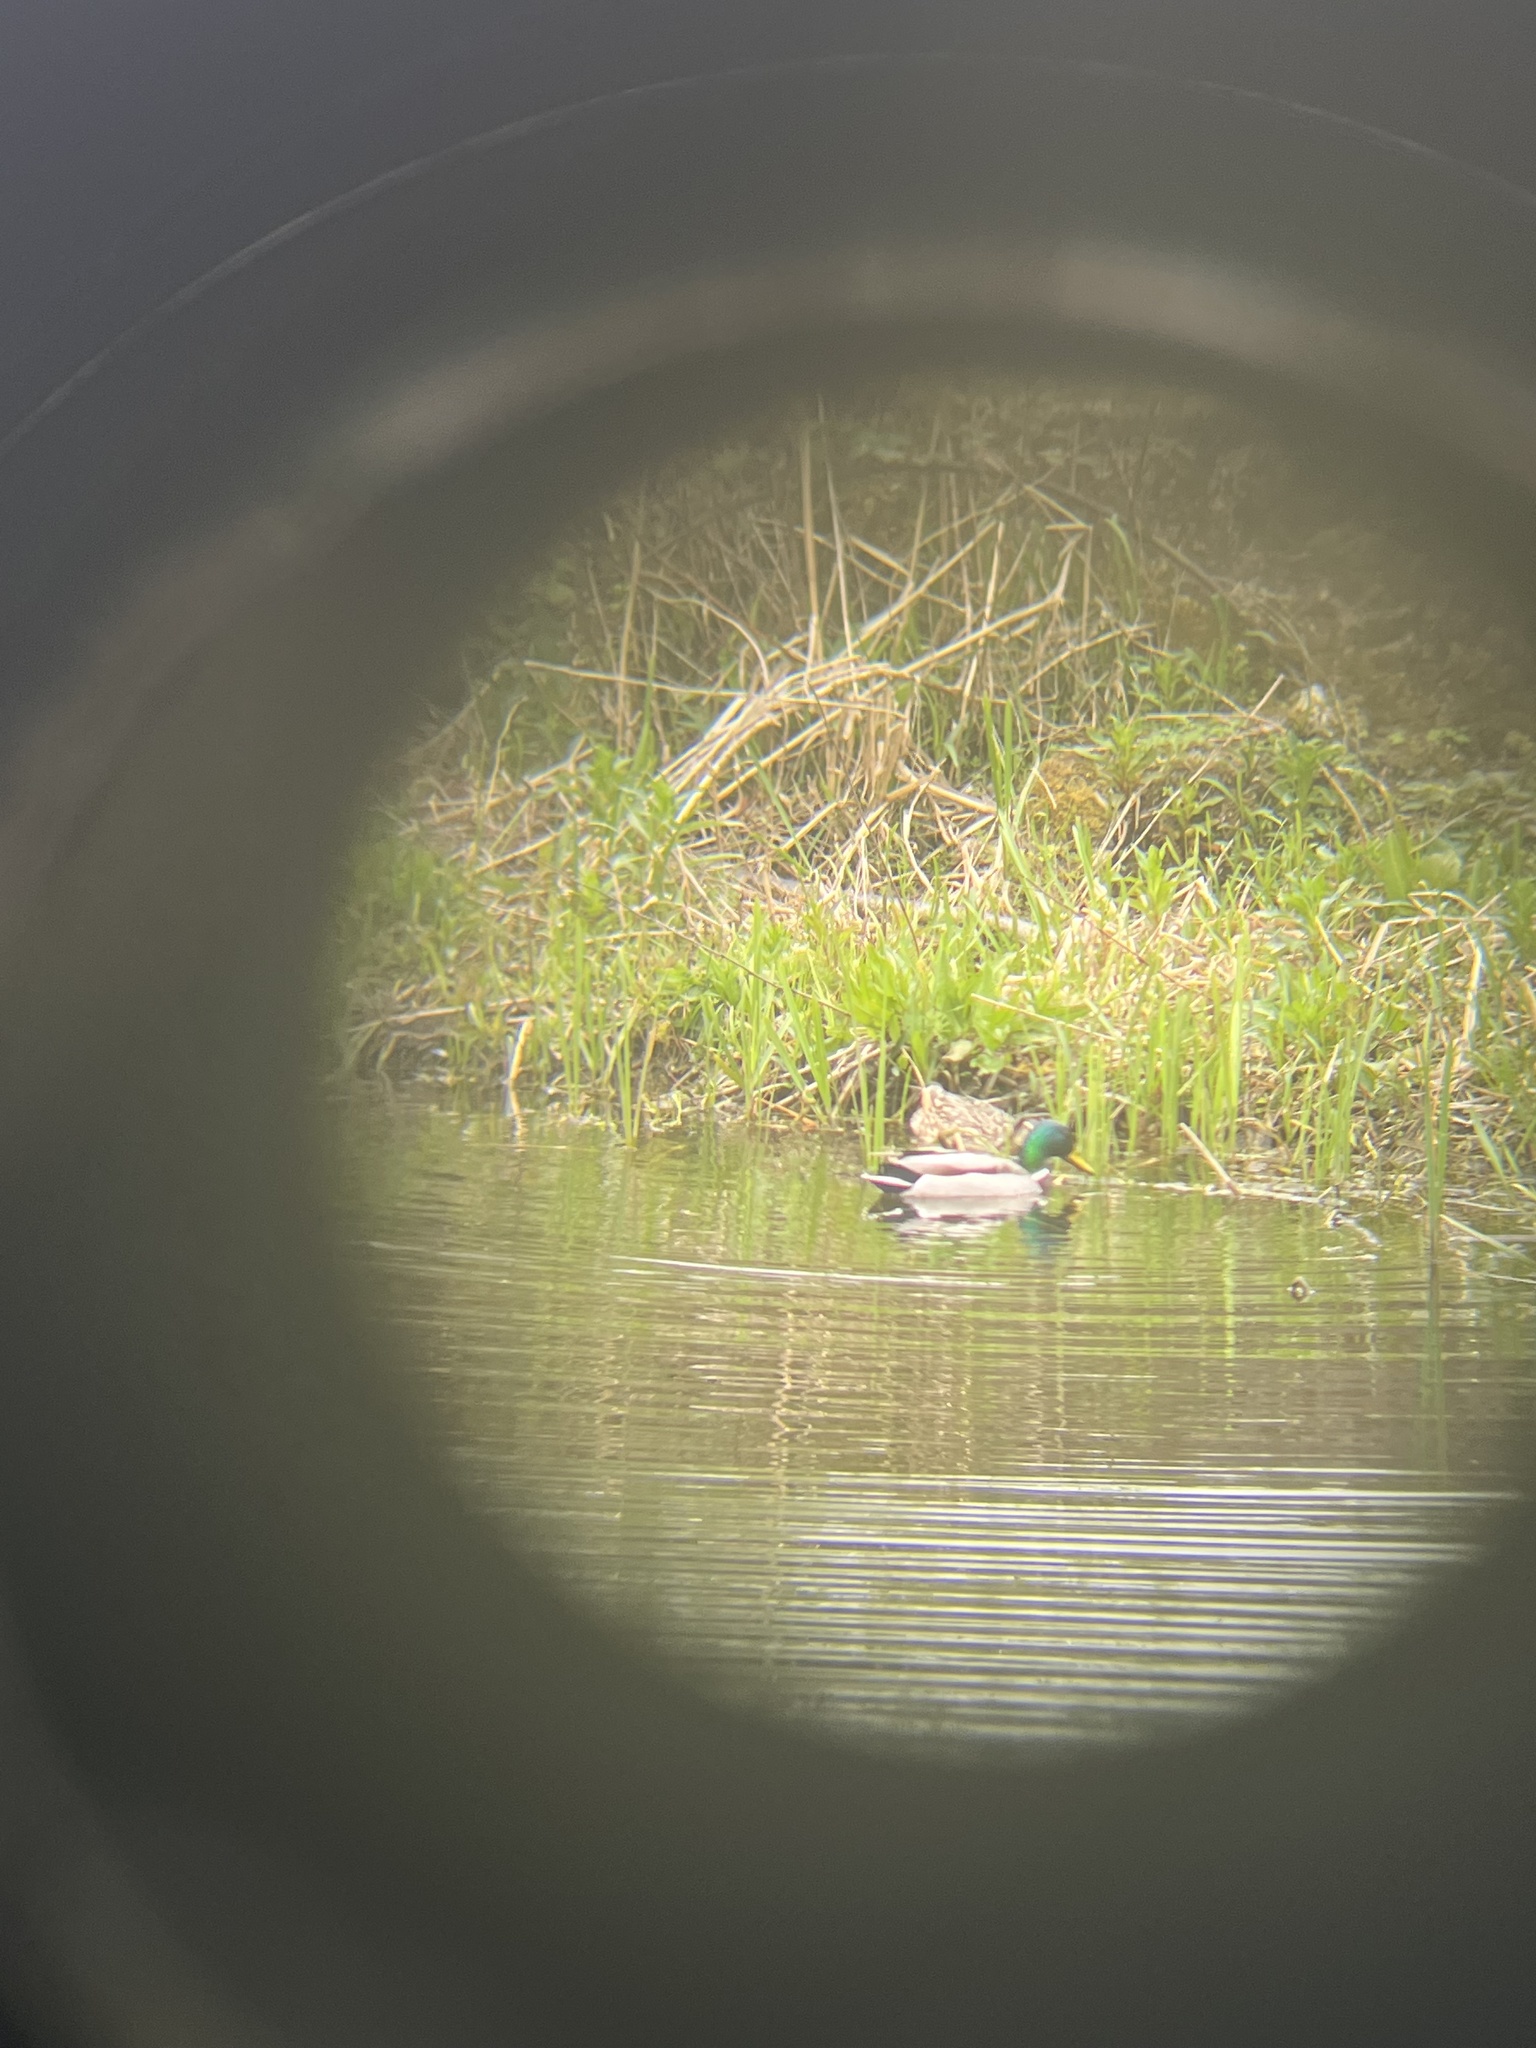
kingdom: Animalia
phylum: Chordata
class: Aves
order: Anseriformes
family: Anatidae
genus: Anas
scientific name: Anas platyrhynchos
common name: Mallard
